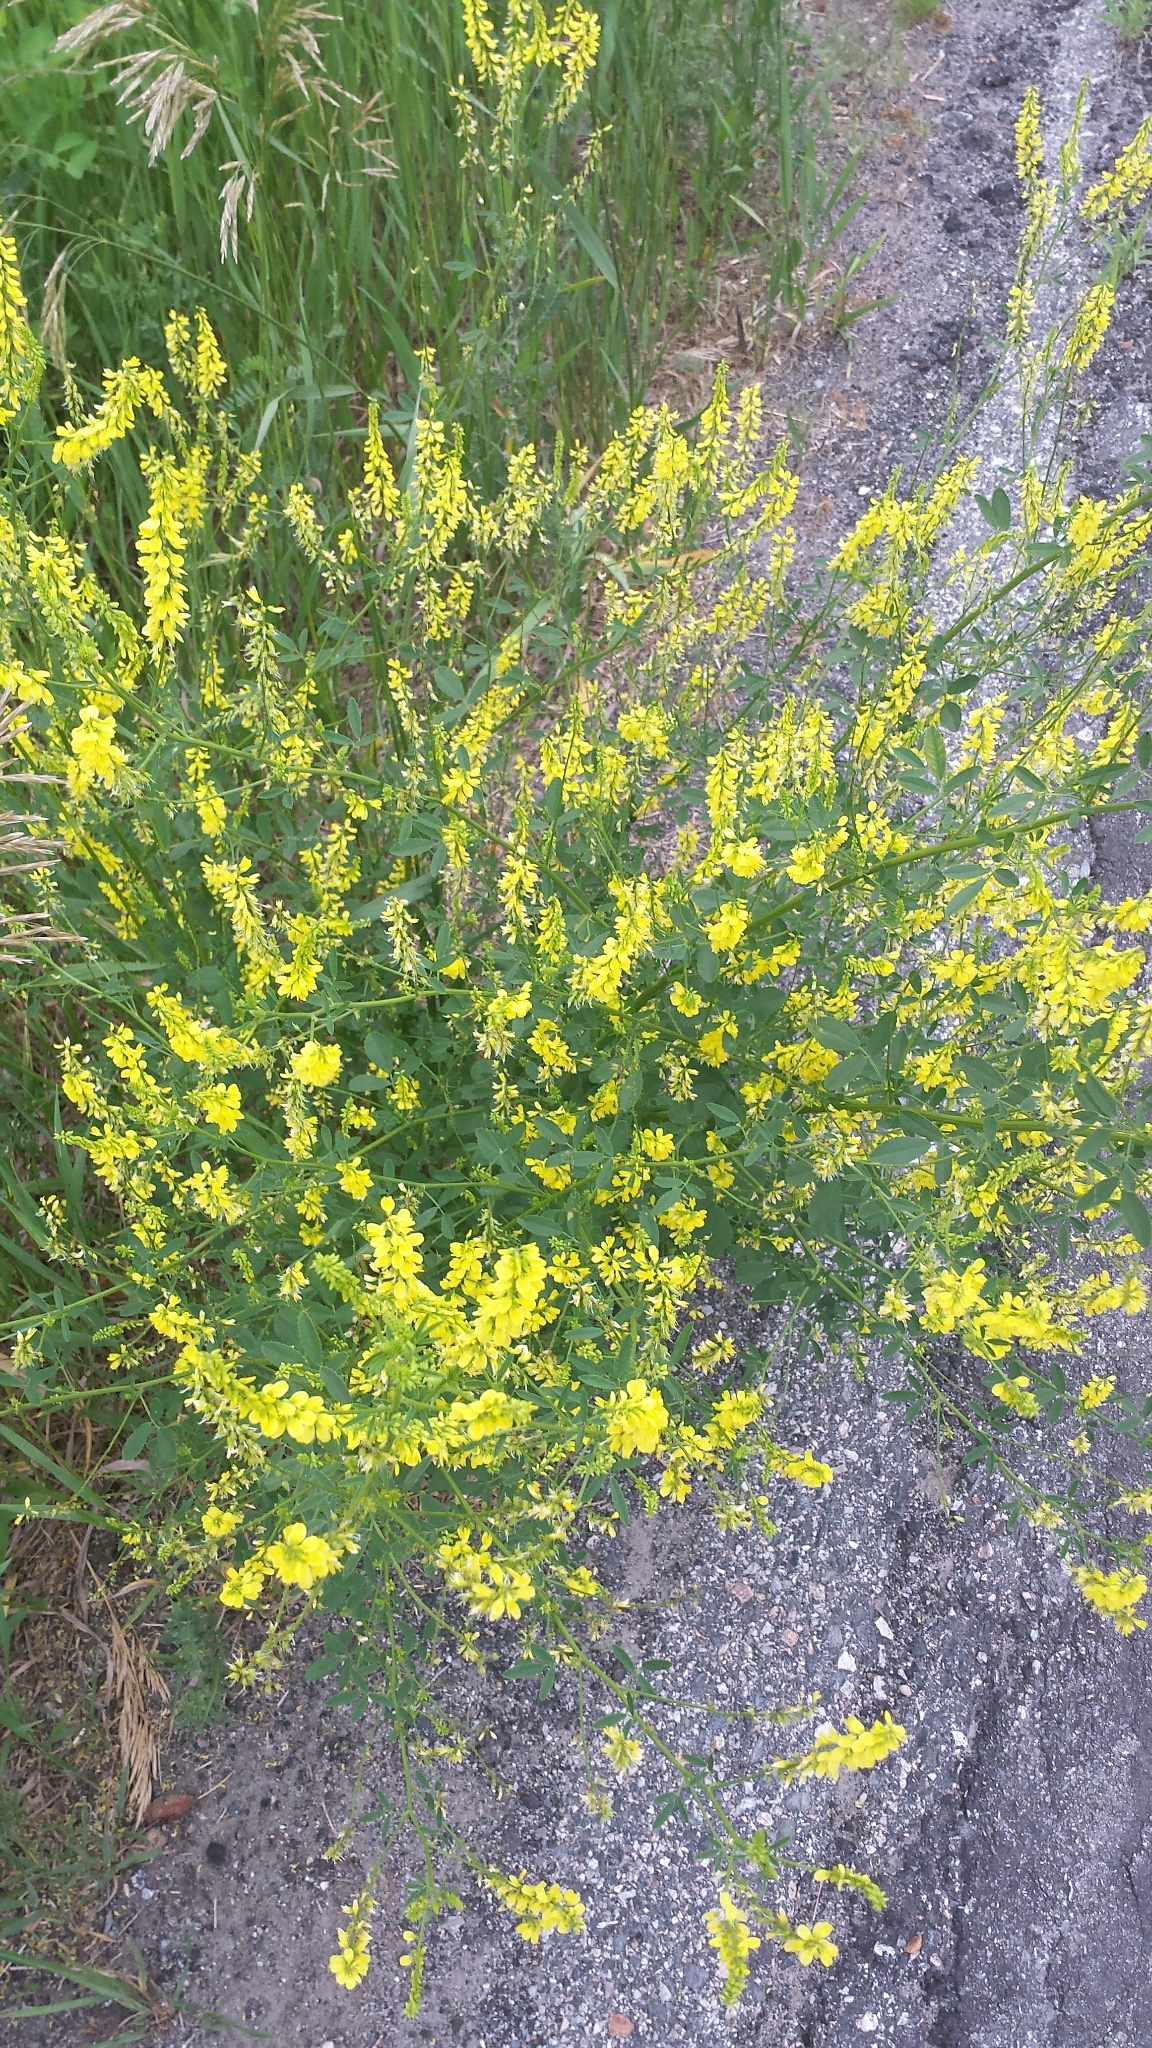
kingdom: Plantae
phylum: Tracheophyta
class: Magnoliopsida
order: Fabales
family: Fabaceae
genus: Melilotus
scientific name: Melilotus officinalis
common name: Sweetclover
